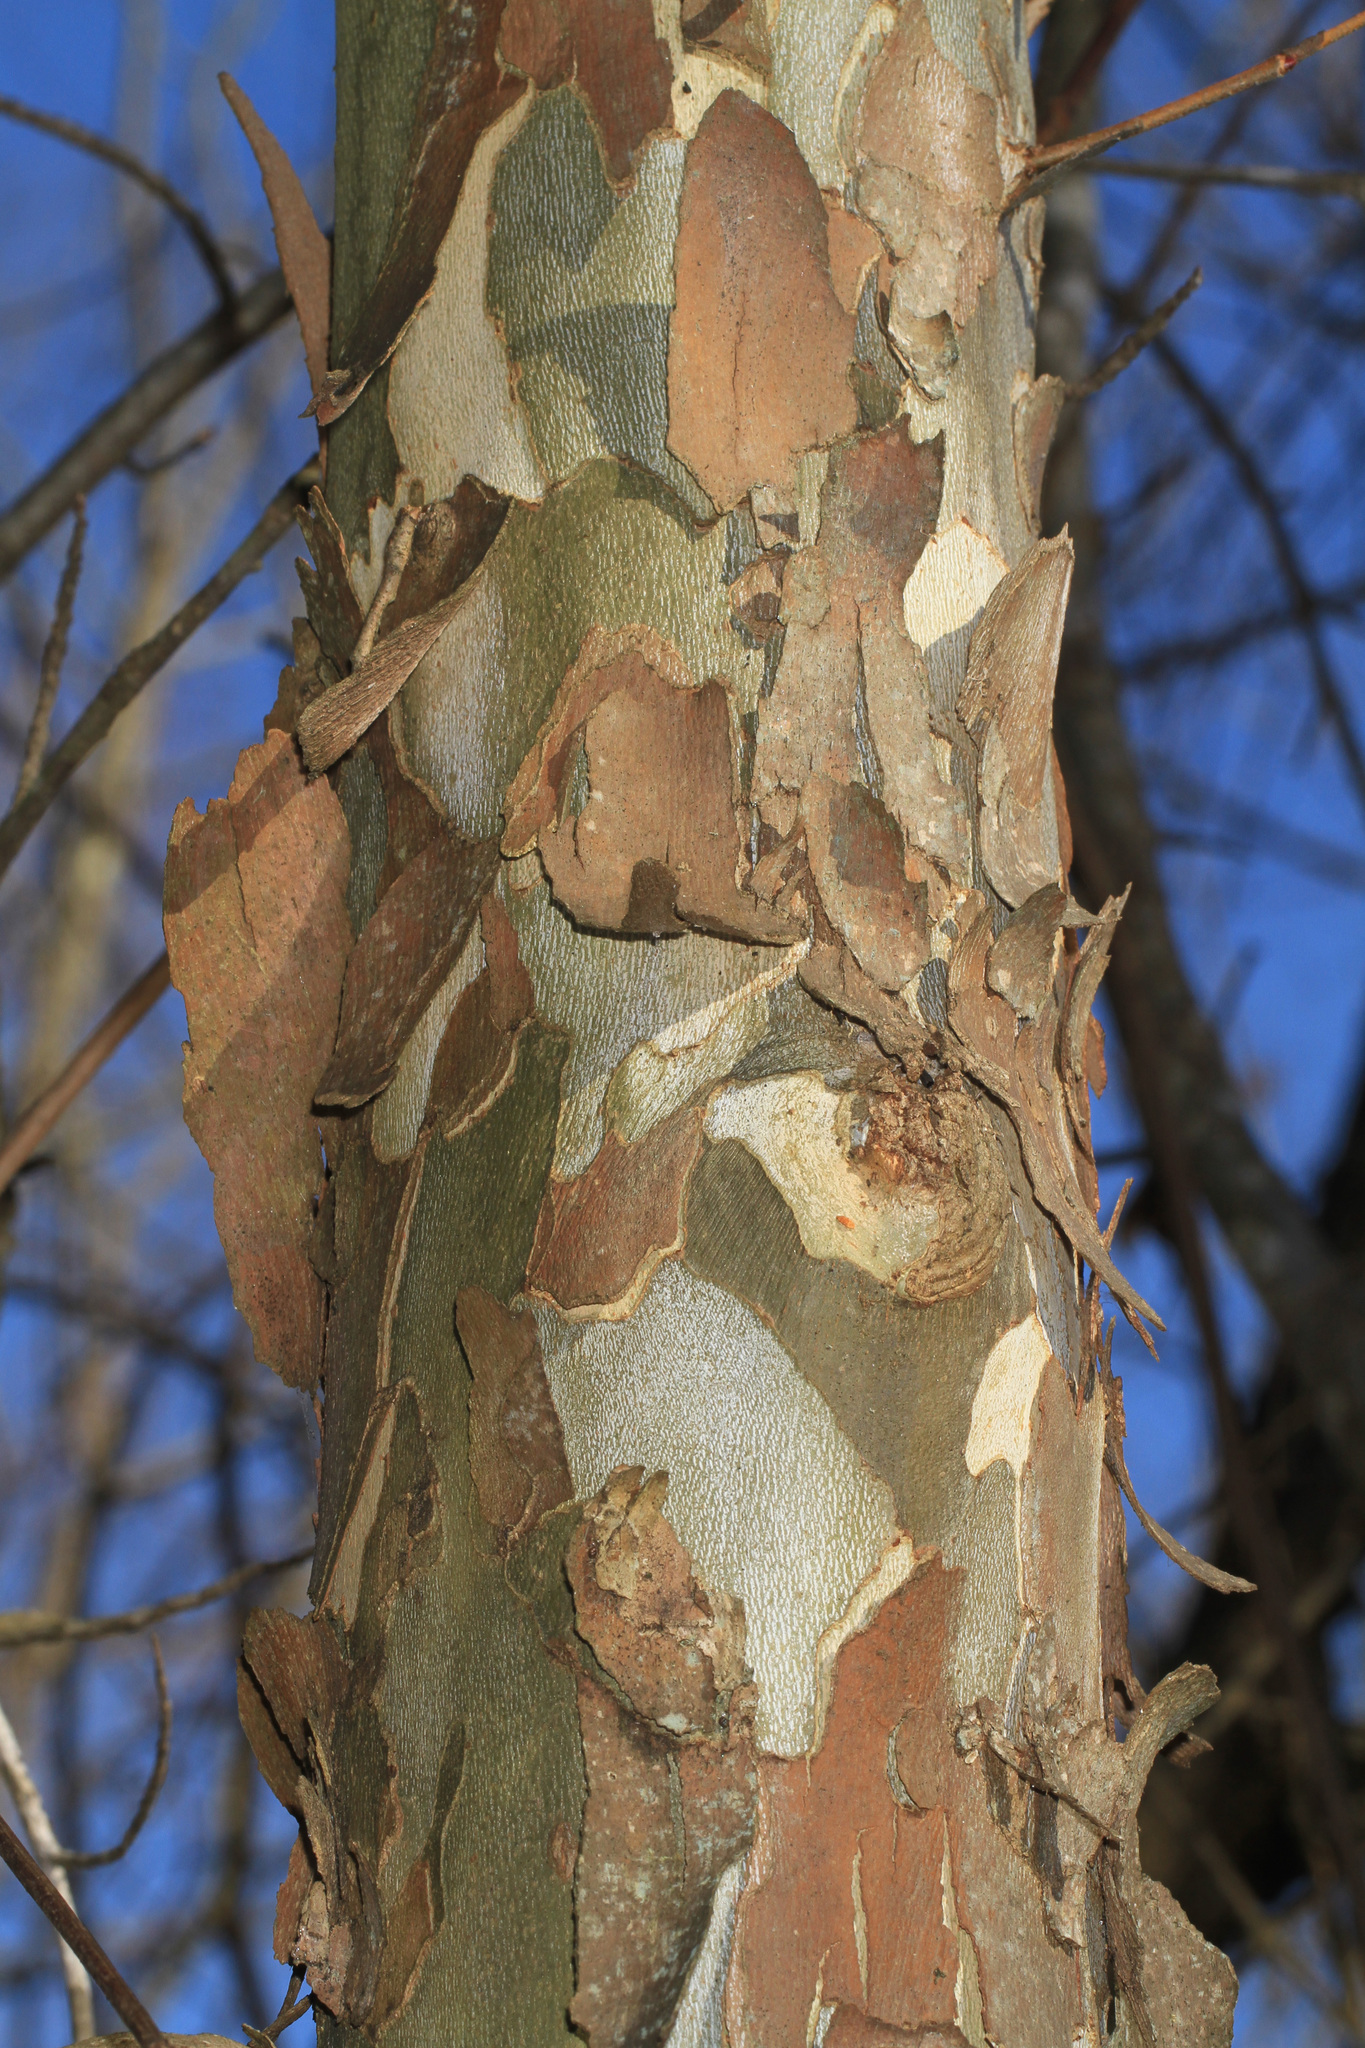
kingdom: Plantae
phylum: Tracheophyta
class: Magnoliopsida
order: Proteales
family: Platanaceae
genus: Platanus
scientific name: Platanus occidentalis
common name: American sycamore
